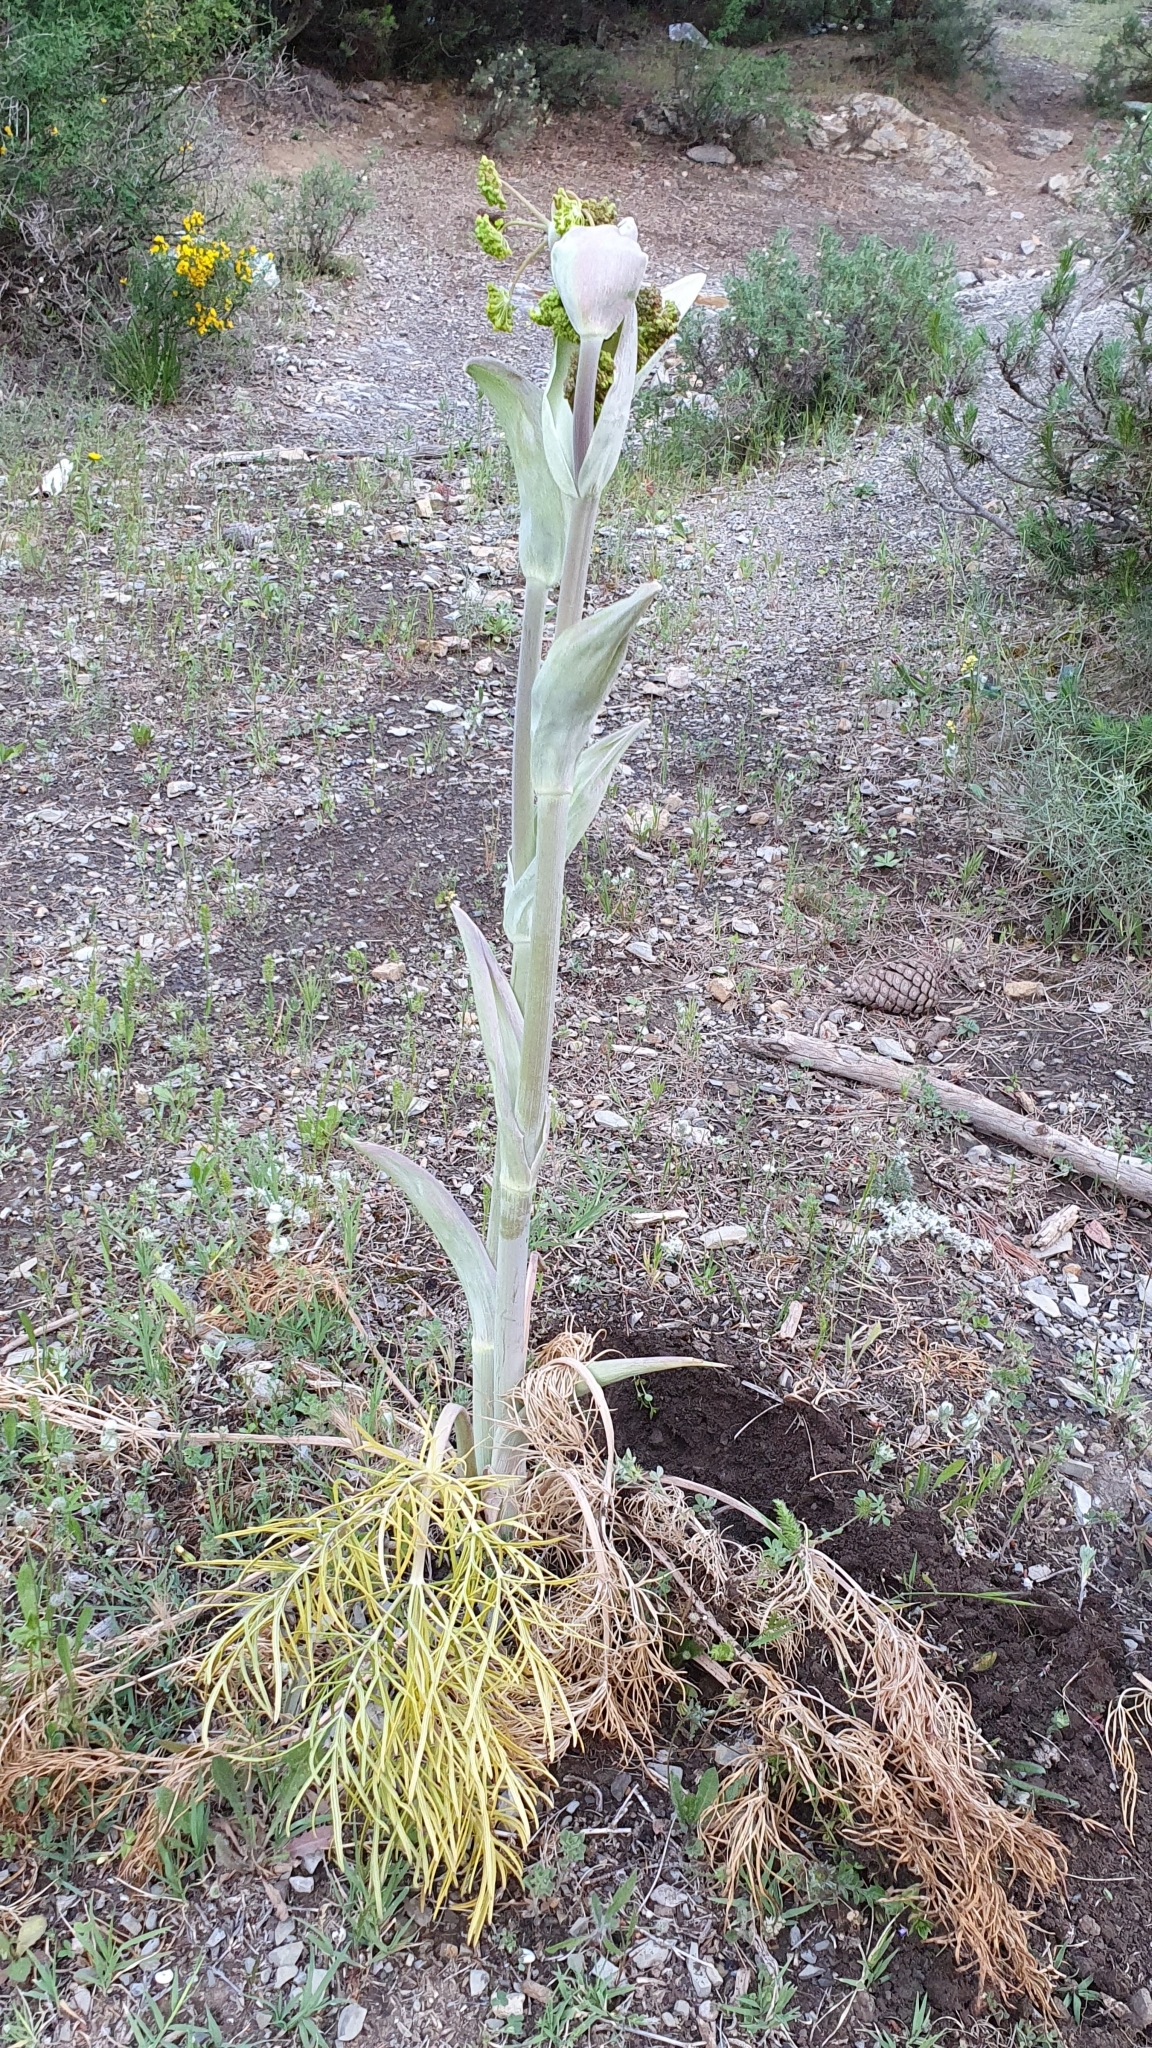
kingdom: Plantae
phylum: Tracheophyta
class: Magnoliopsida
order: Apiales
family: Apiaceae
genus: Thapsia
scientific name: Thapsia garganica
